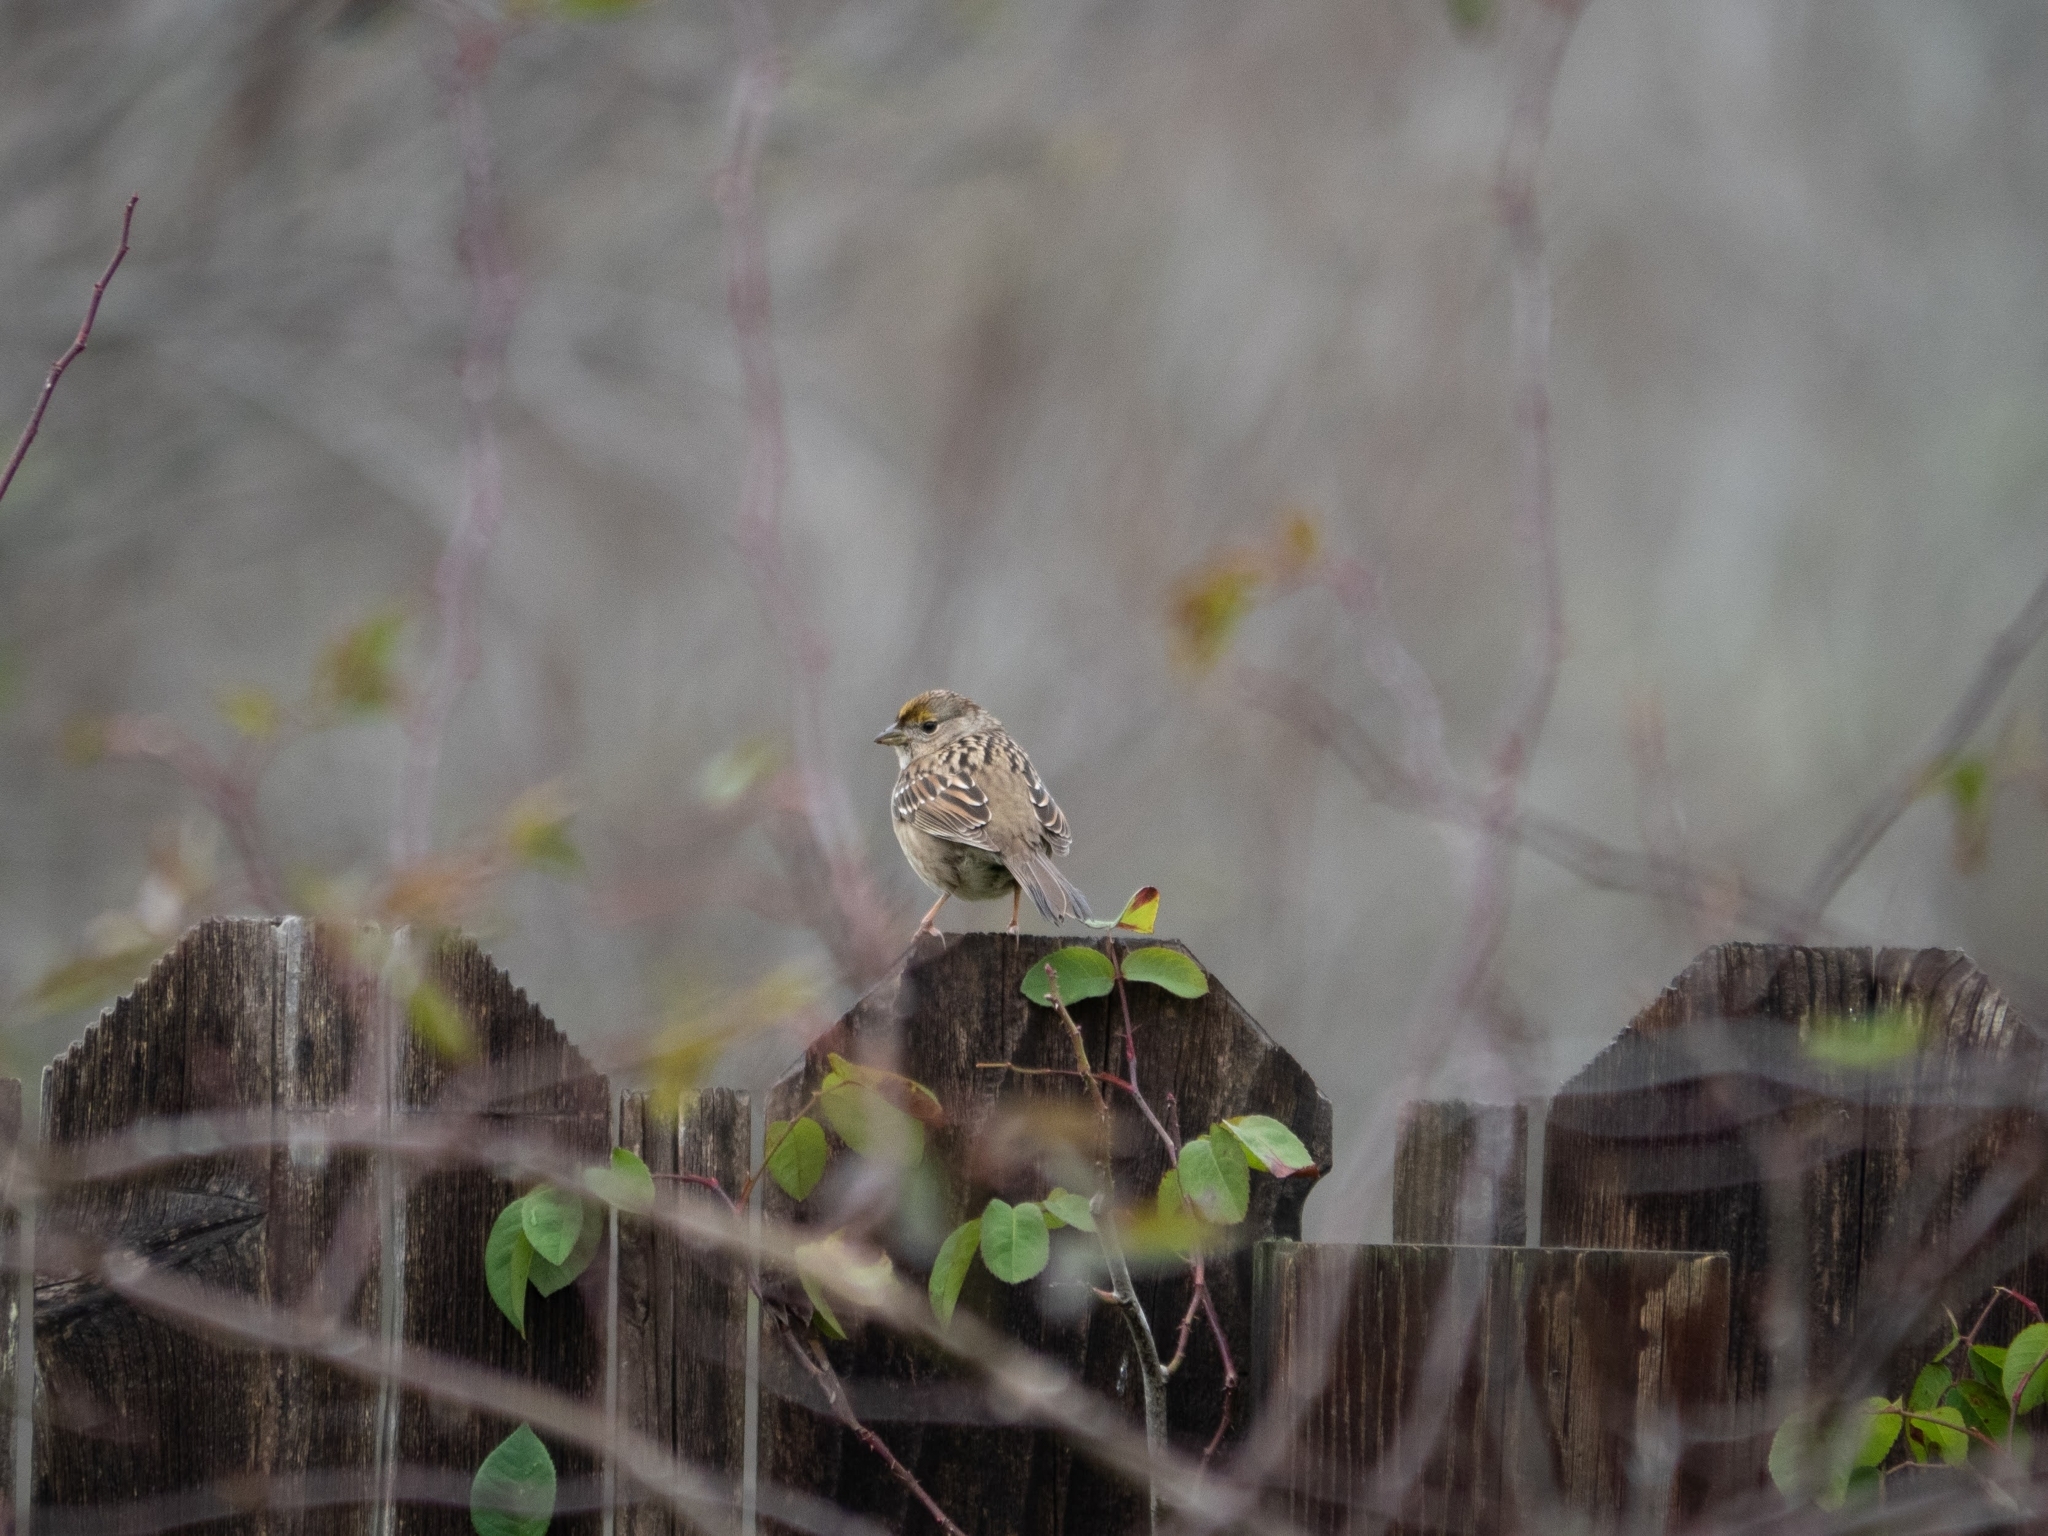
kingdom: Animalia
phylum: Chordata
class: Aves
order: Passeriformes
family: Passerellidae
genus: Zonotrichia
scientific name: Zonotrichia atricapilla
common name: Golden-crowned sparrow
